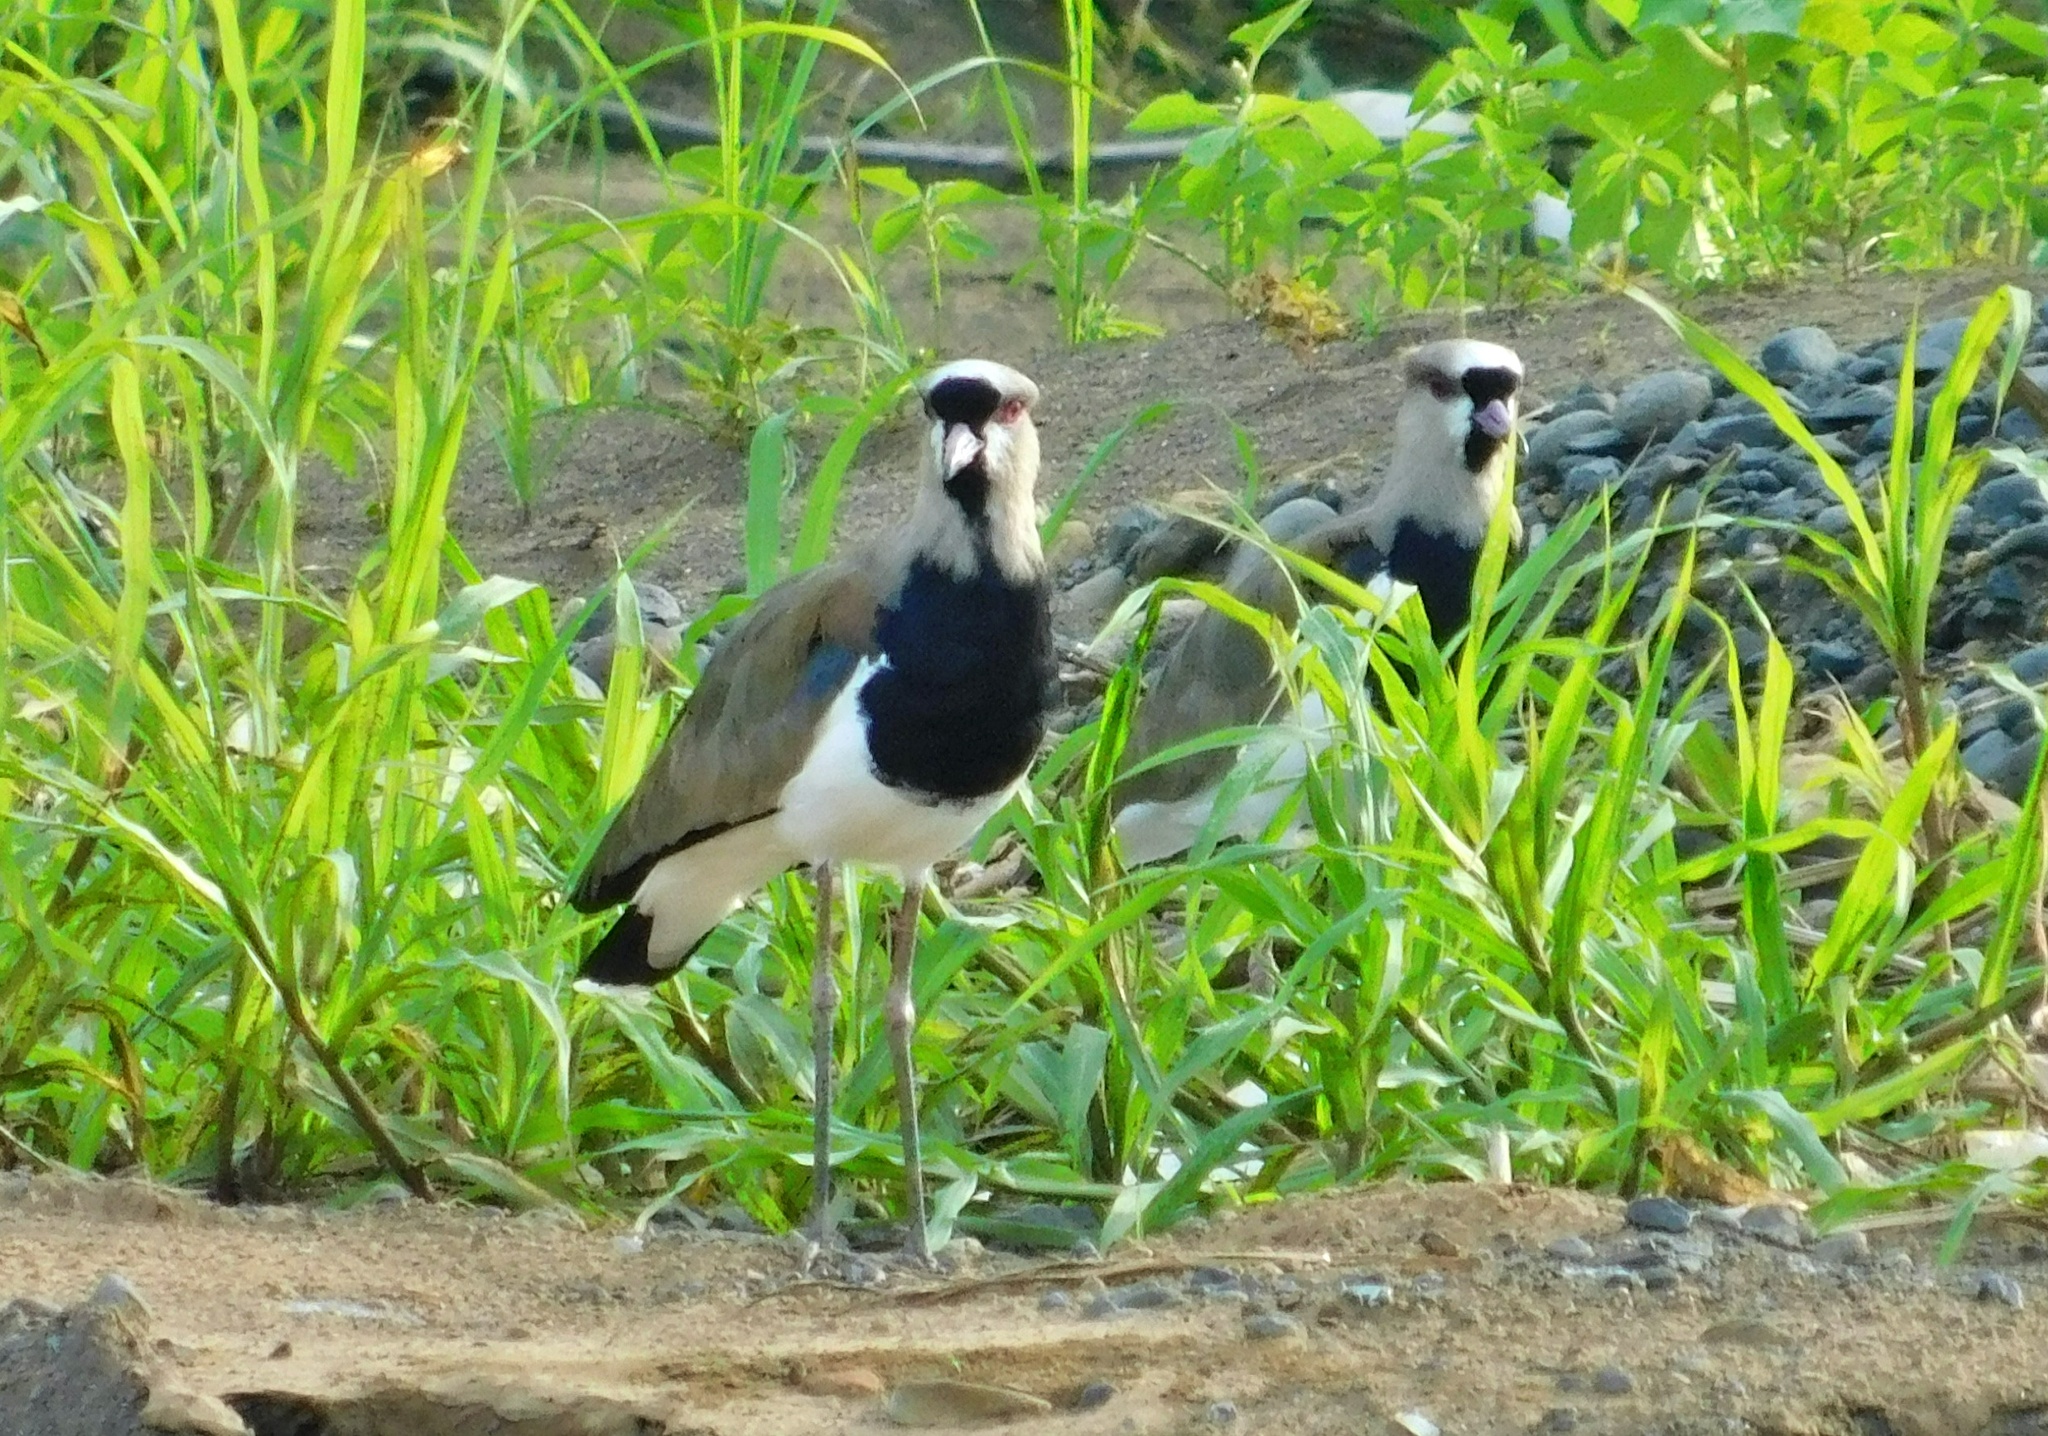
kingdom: Animalia
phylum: Chordata
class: Aves
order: Charadriiformes
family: Charadriidae
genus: Vanellus
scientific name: Vanellus chilensis
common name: Southern lapwing
